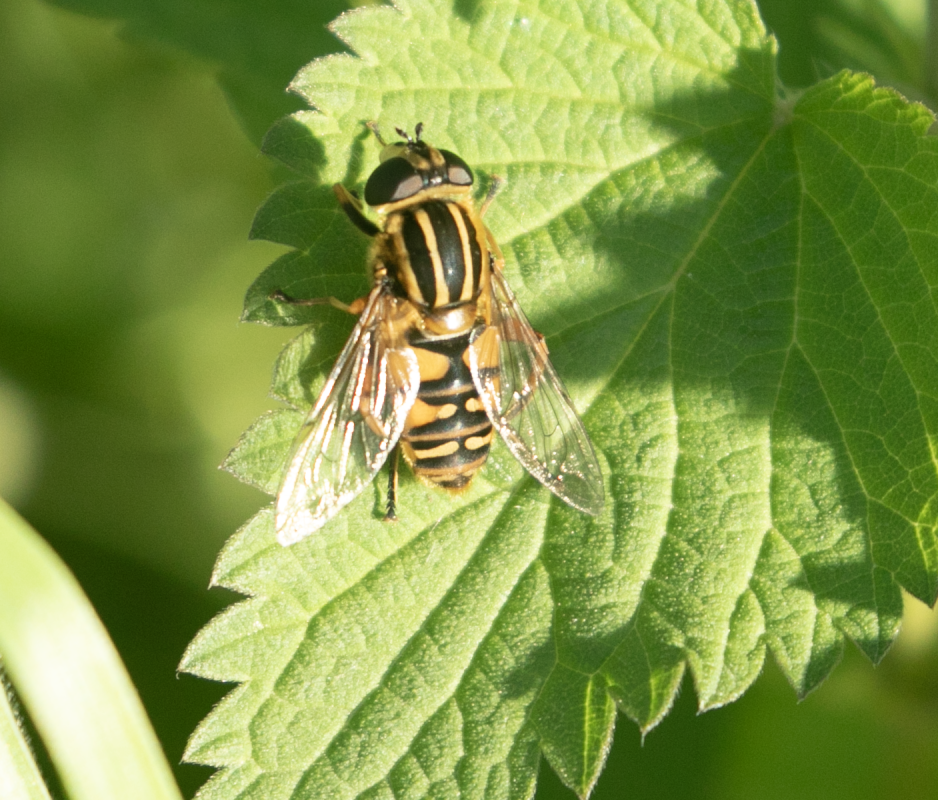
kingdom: Animalia
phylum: Arthropoda
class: Insecta
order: Diptera
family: Syrphidae
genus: Helophilus
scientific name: Helophilus pendulus
